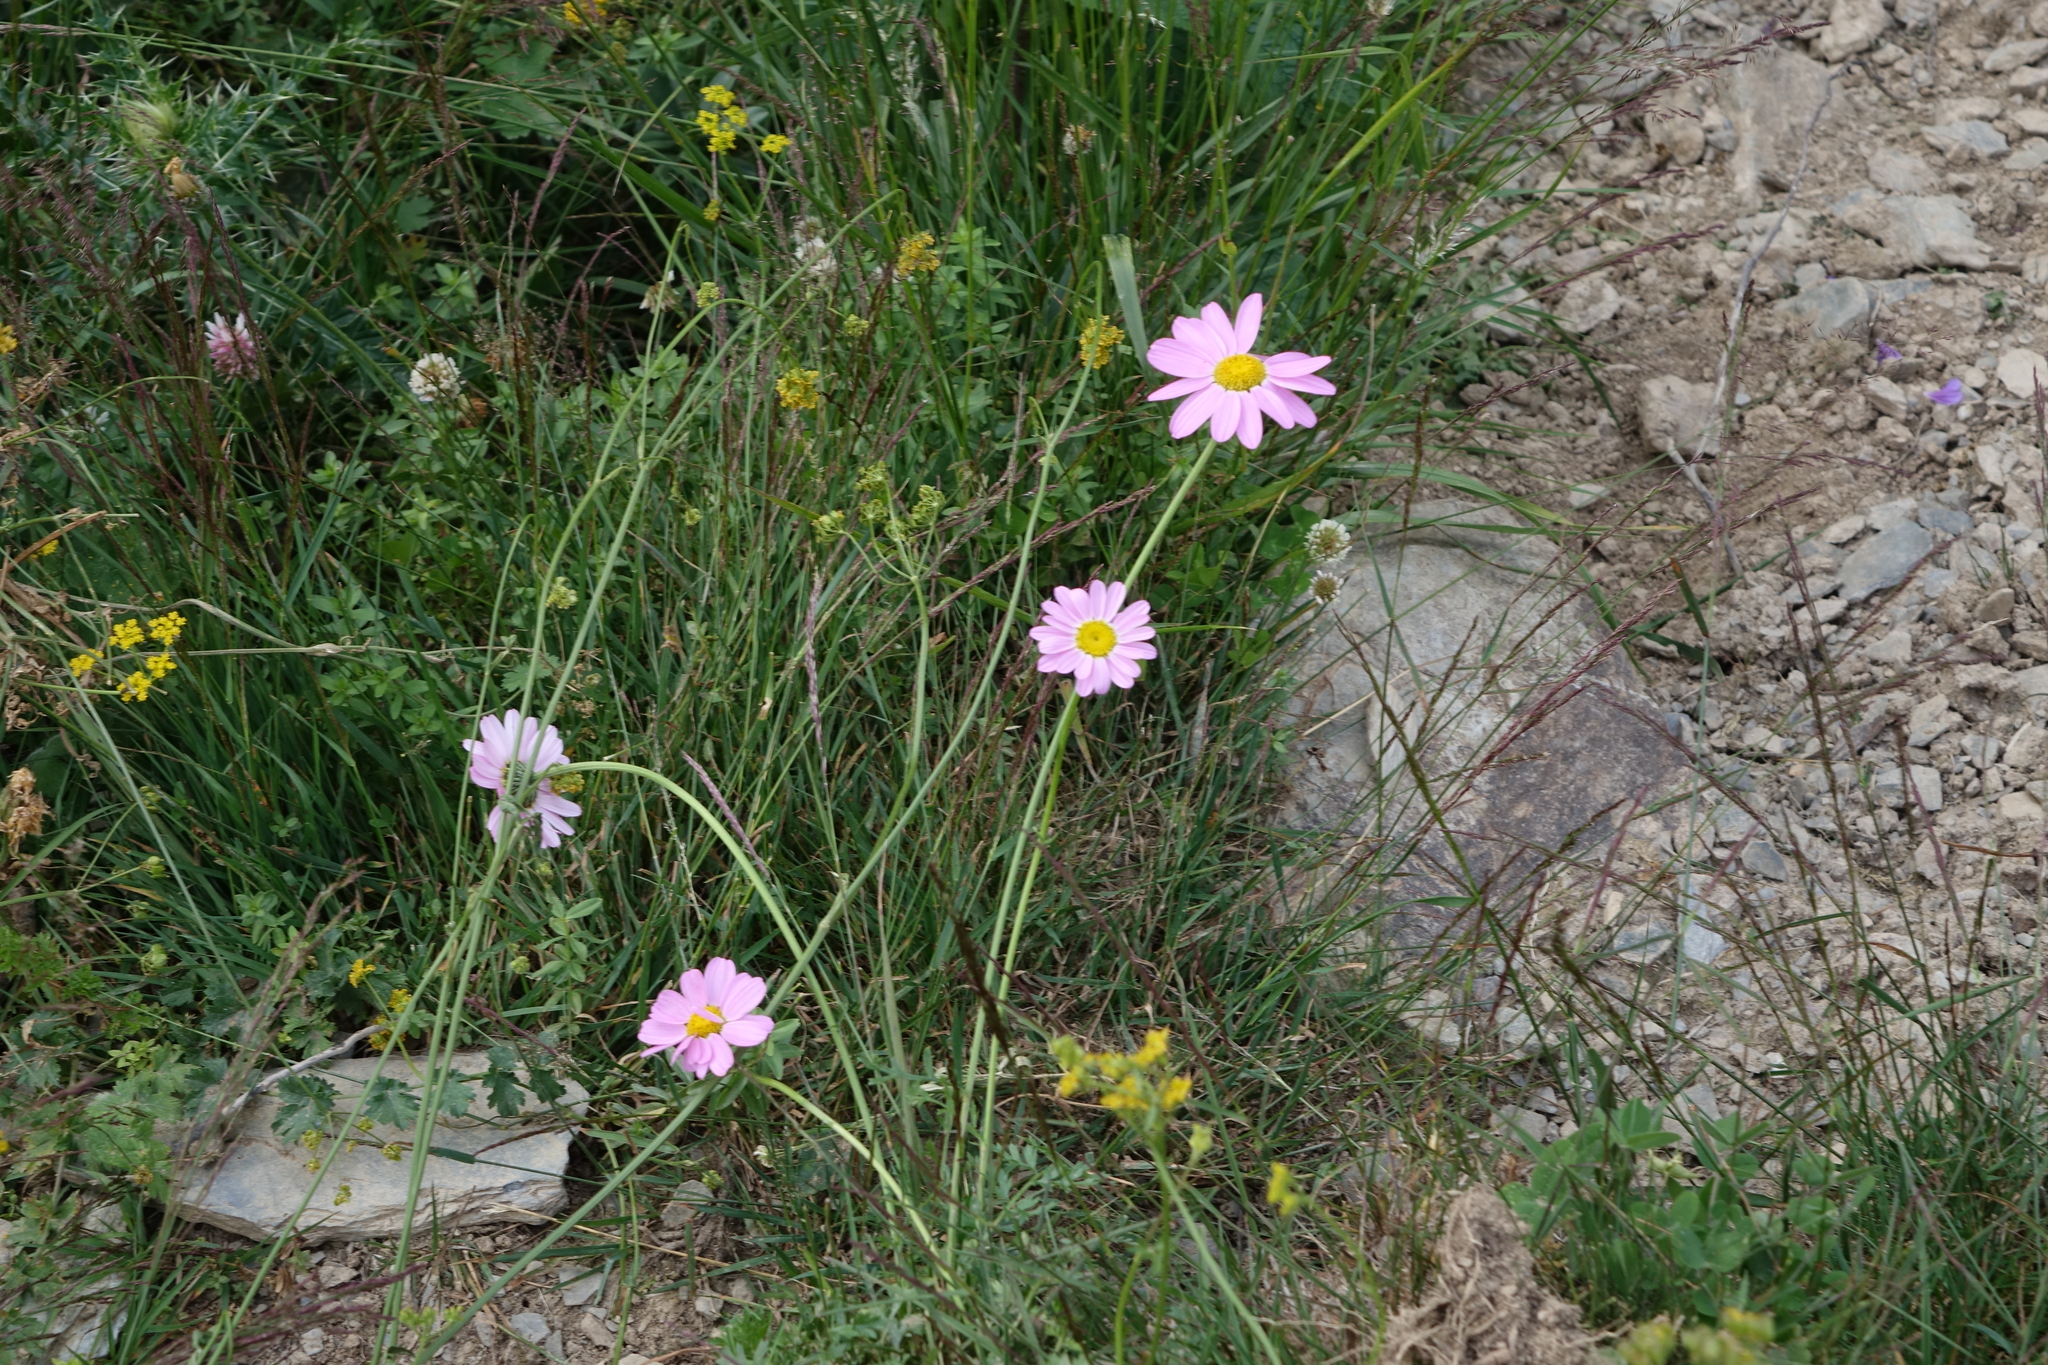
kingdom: Plantae
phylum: Tracheophyta
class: Magnoliopsida
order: Asterales
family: Asteraceae
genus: Tanacetum
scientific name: Tanacetum coccineum
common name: Pyrethum daisy
